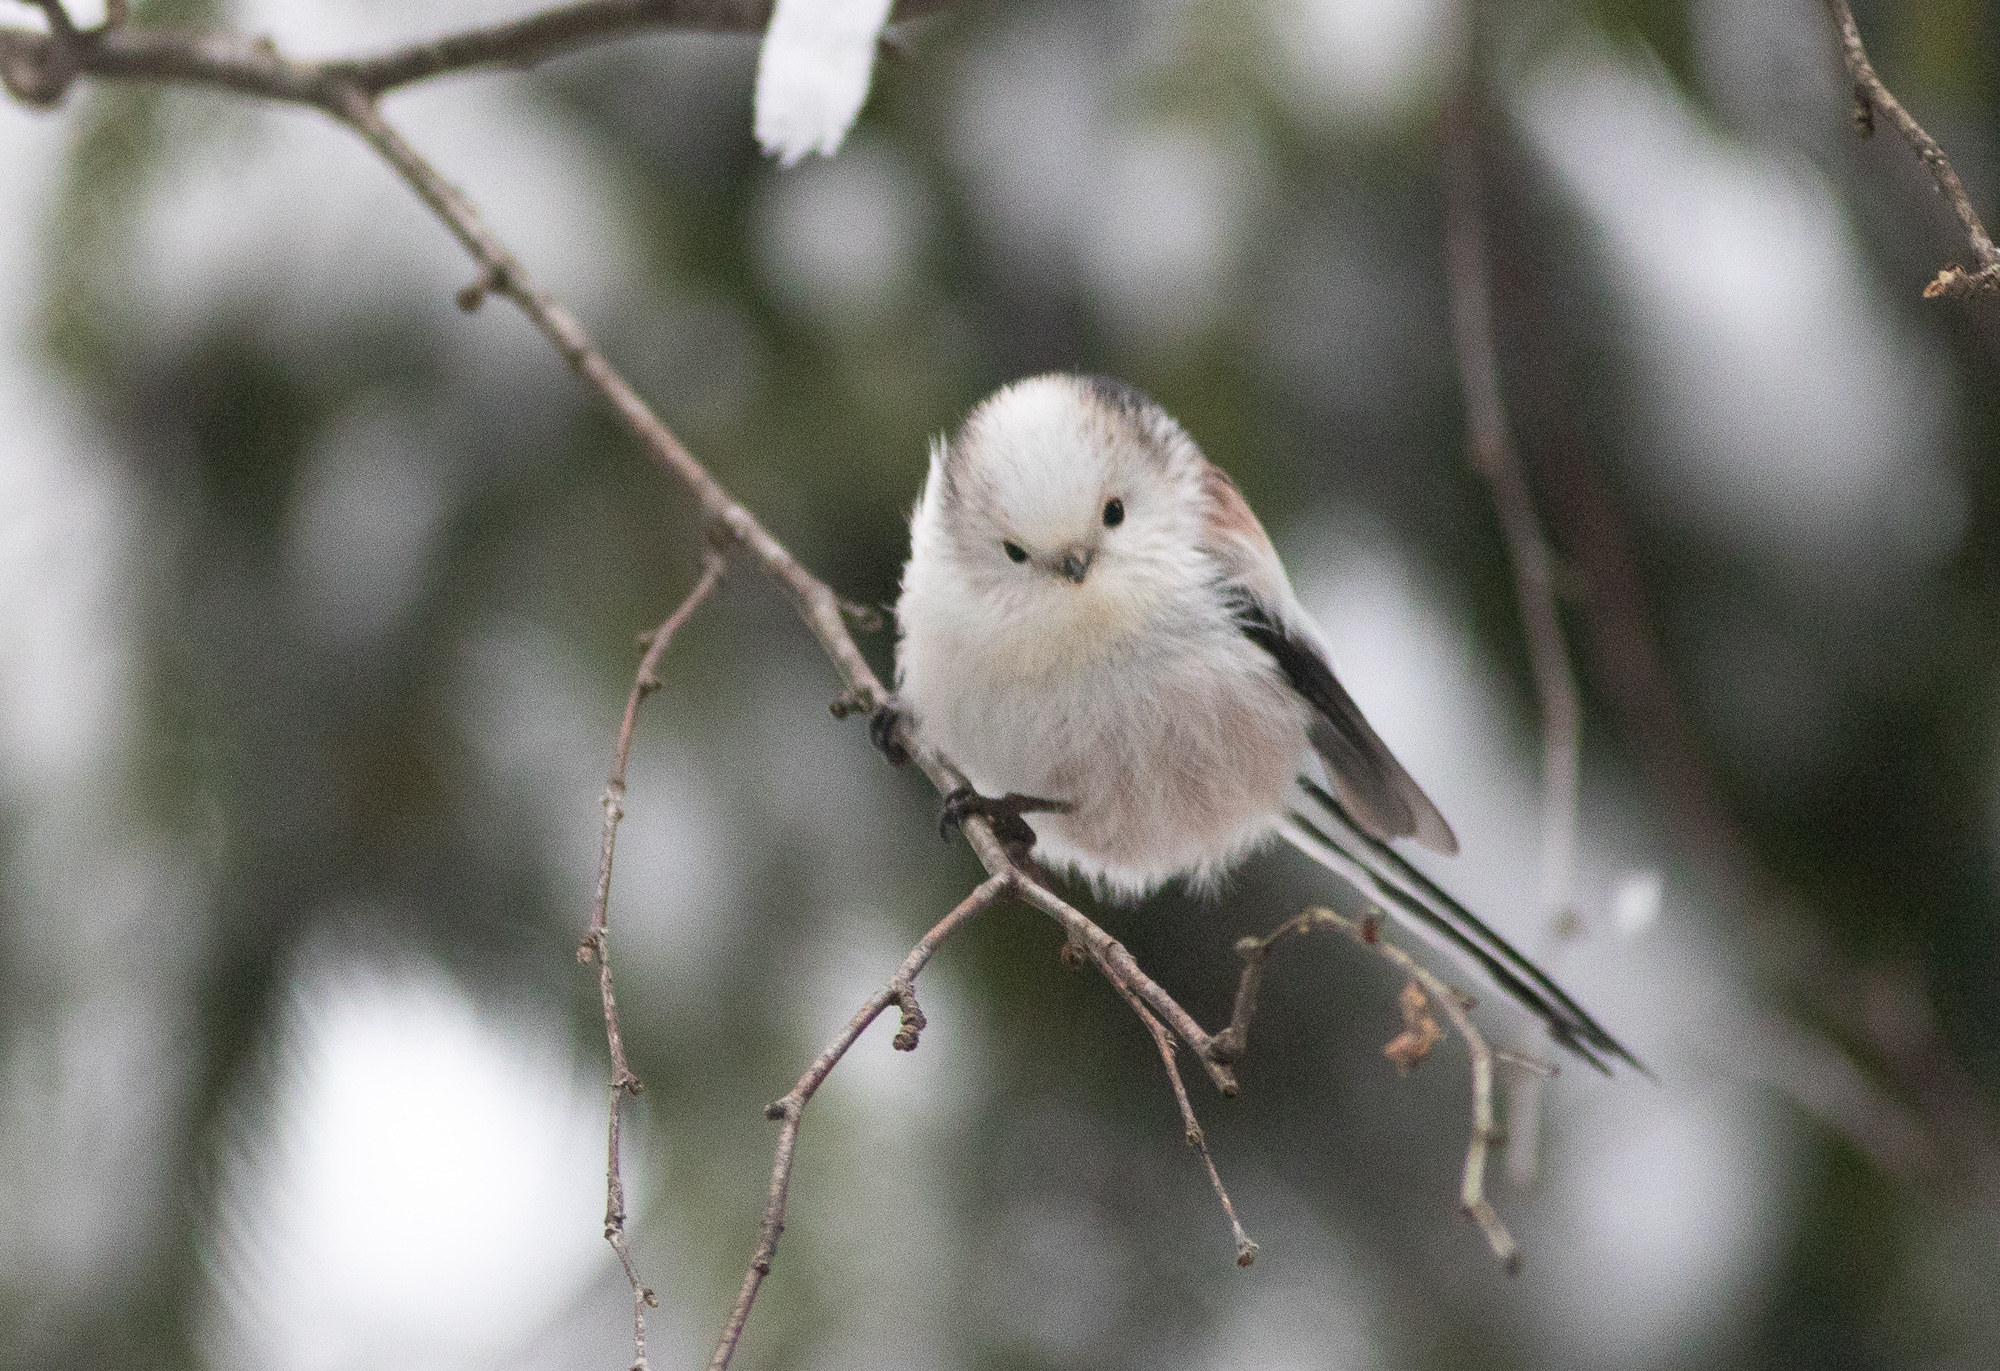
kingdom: Animalia
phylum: Chordata
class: Aves
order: Passeriformes
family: Aegithalidae
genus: Aegithalos
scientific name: Aegithalos caudatus
